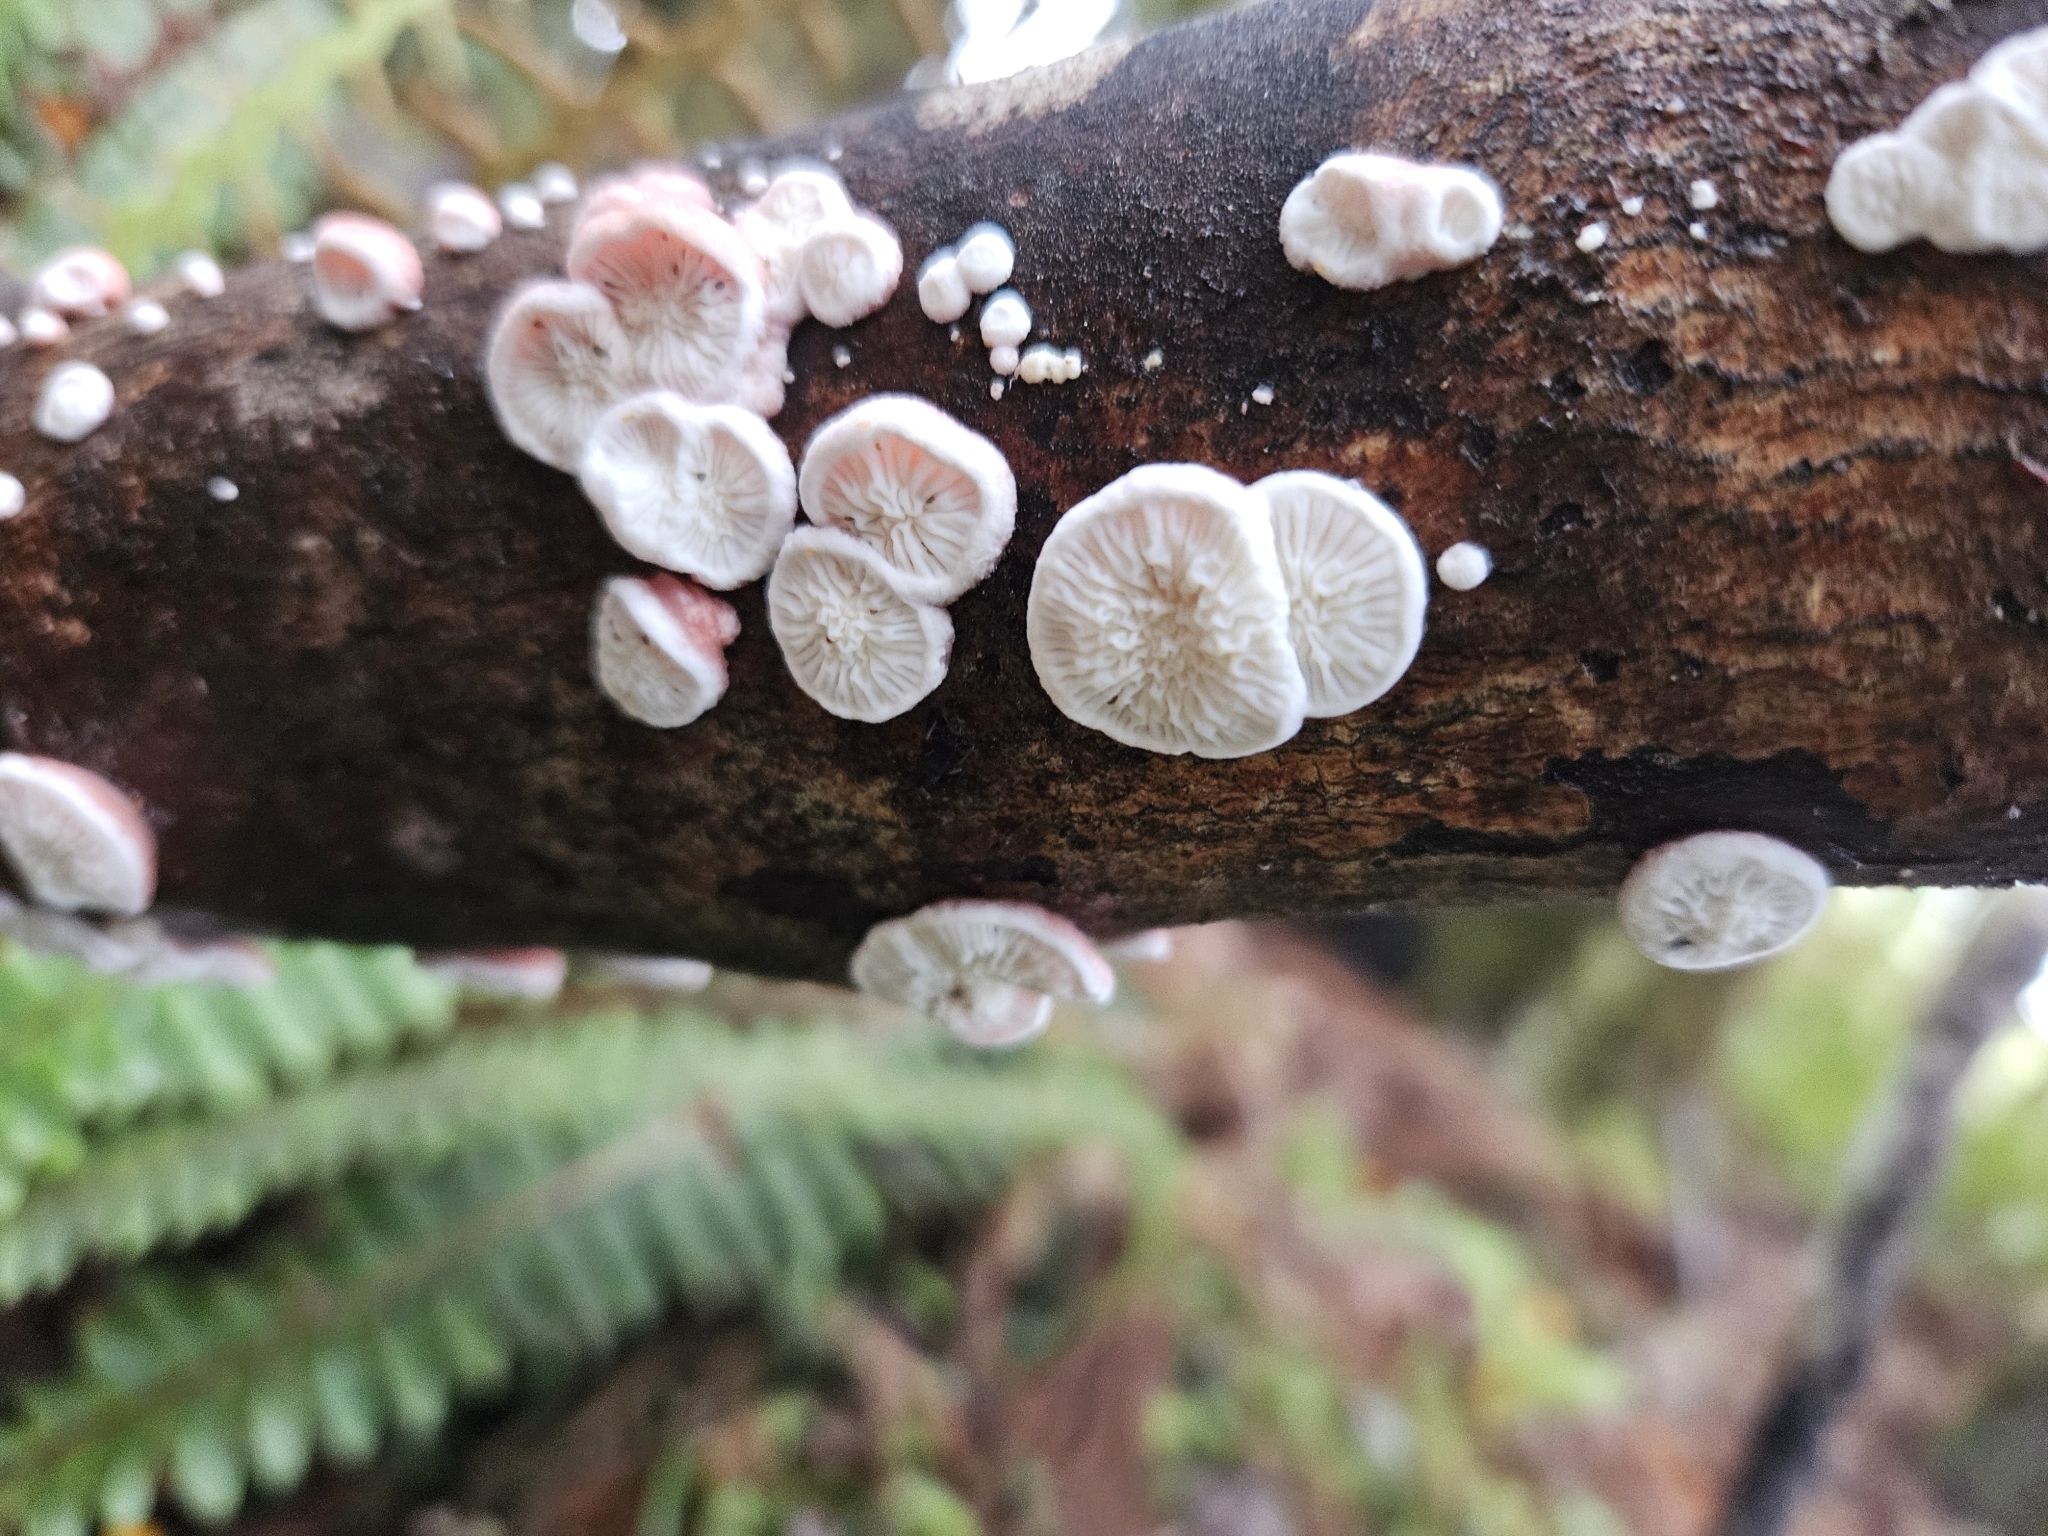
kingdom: Fungi
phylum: Basidiomycota
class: Agaricomycetes
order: Polyporales
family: Meruliaceae
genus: Phlebia
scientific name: Phlebia
